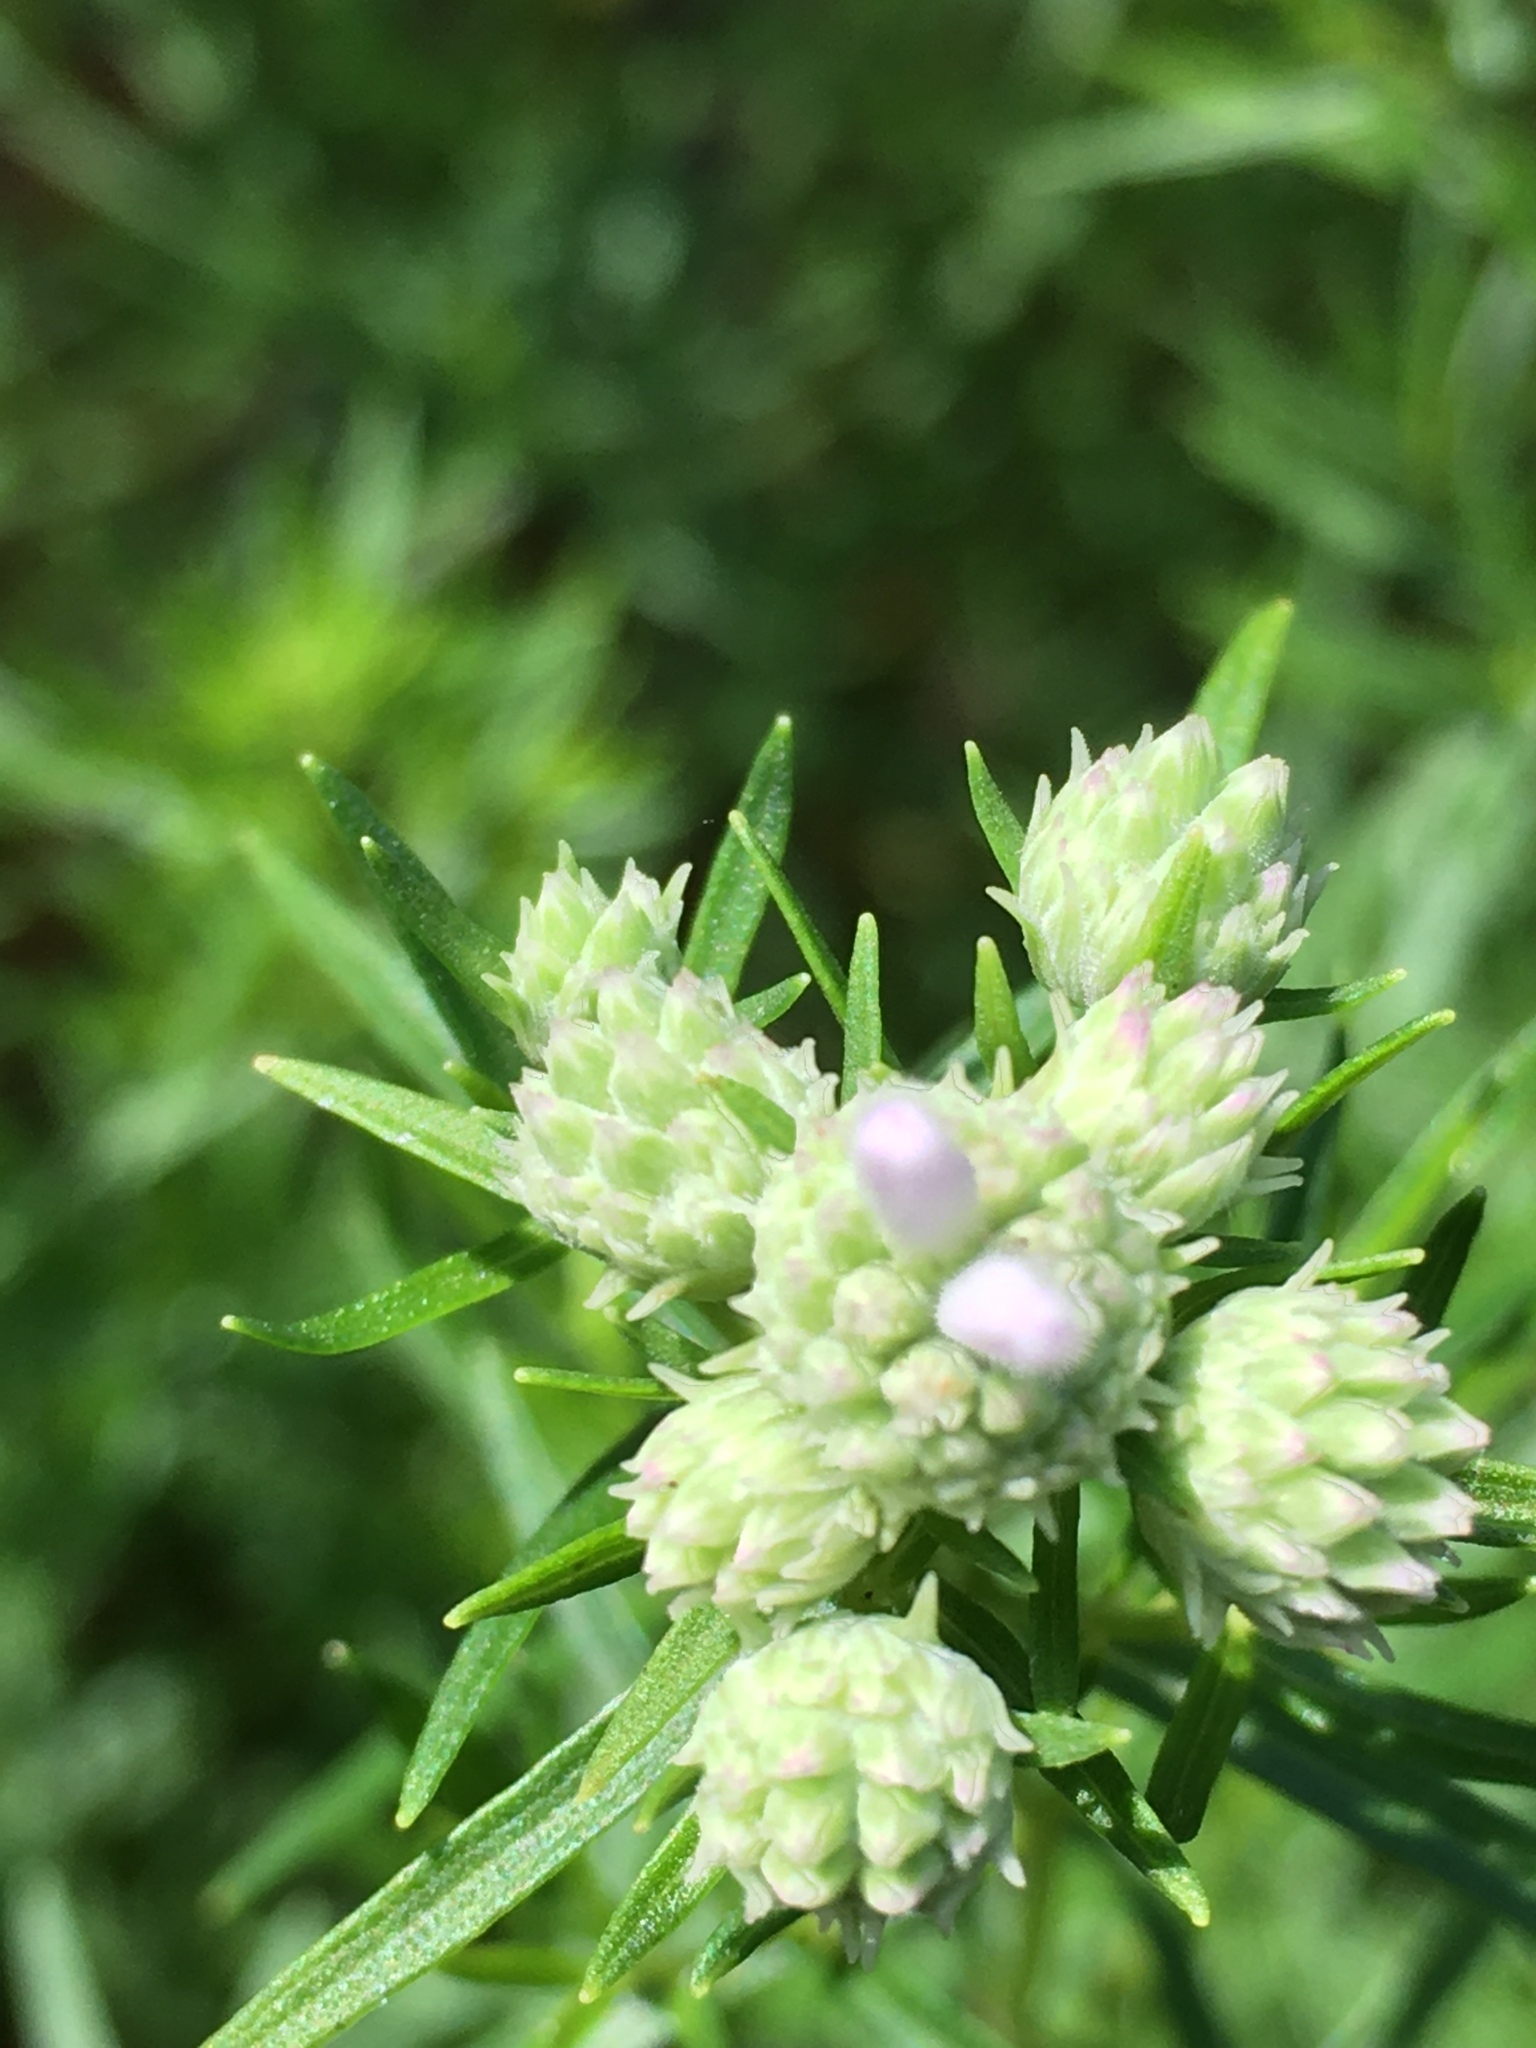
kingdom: Plantae
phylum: Tracheophyta
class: Magnoliopsida
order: Lamiales
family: Lamiaceae
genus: Pycnanthemum
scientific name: Pycnanthemum tenuifolium
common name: Narrow-leaf mountain-mint
